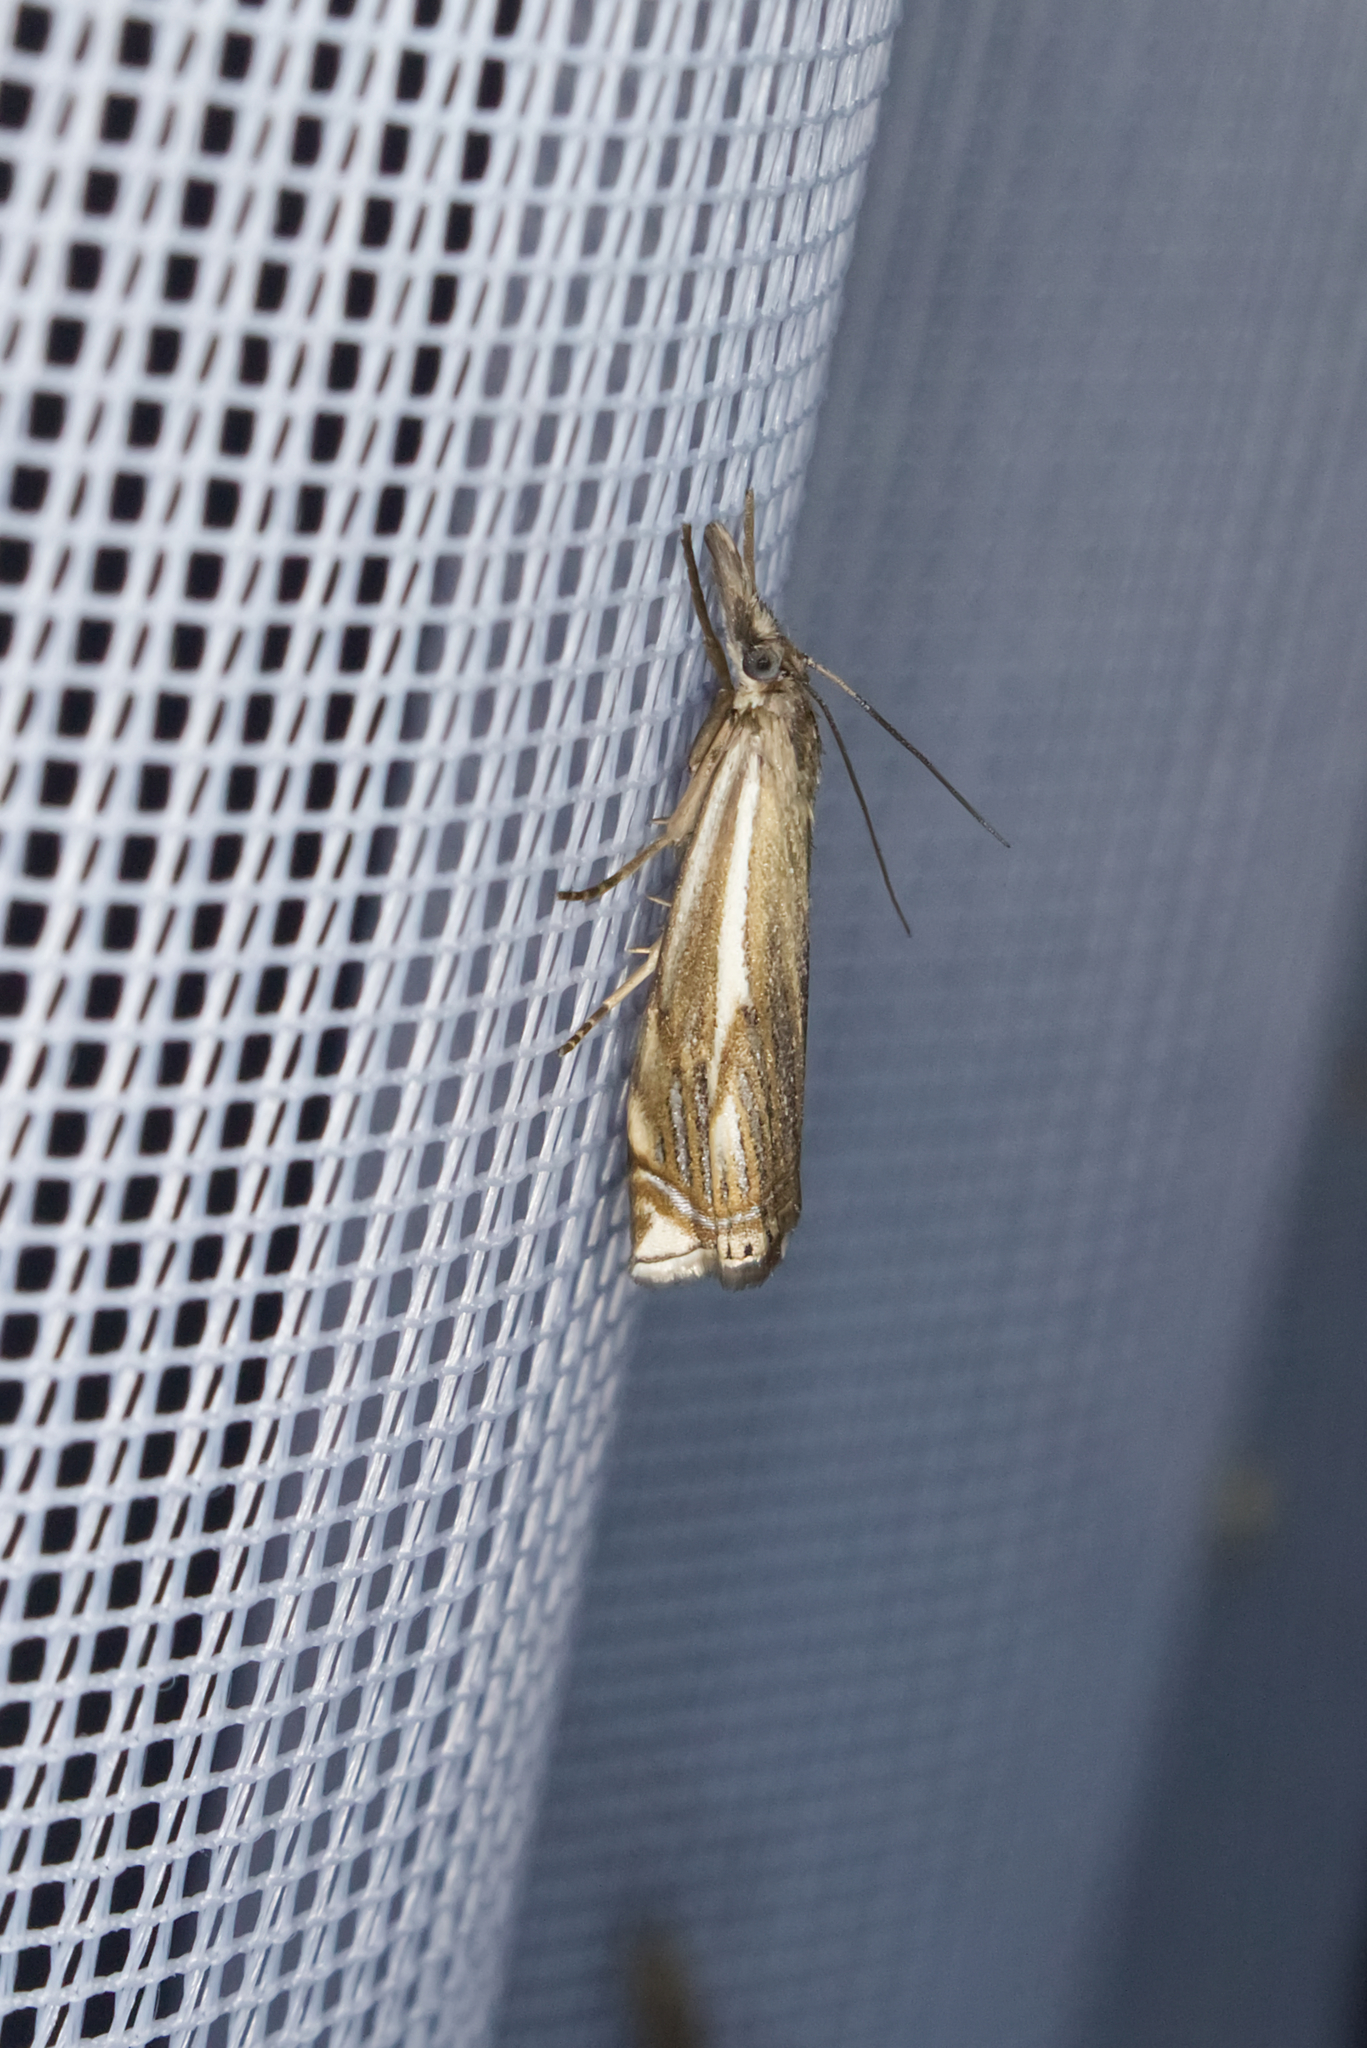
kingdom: Animalia
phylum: Arthropoda
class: Insecta
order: Lepidoptera
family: Crambidae
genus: Crambus
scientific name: Crambus nemorella
